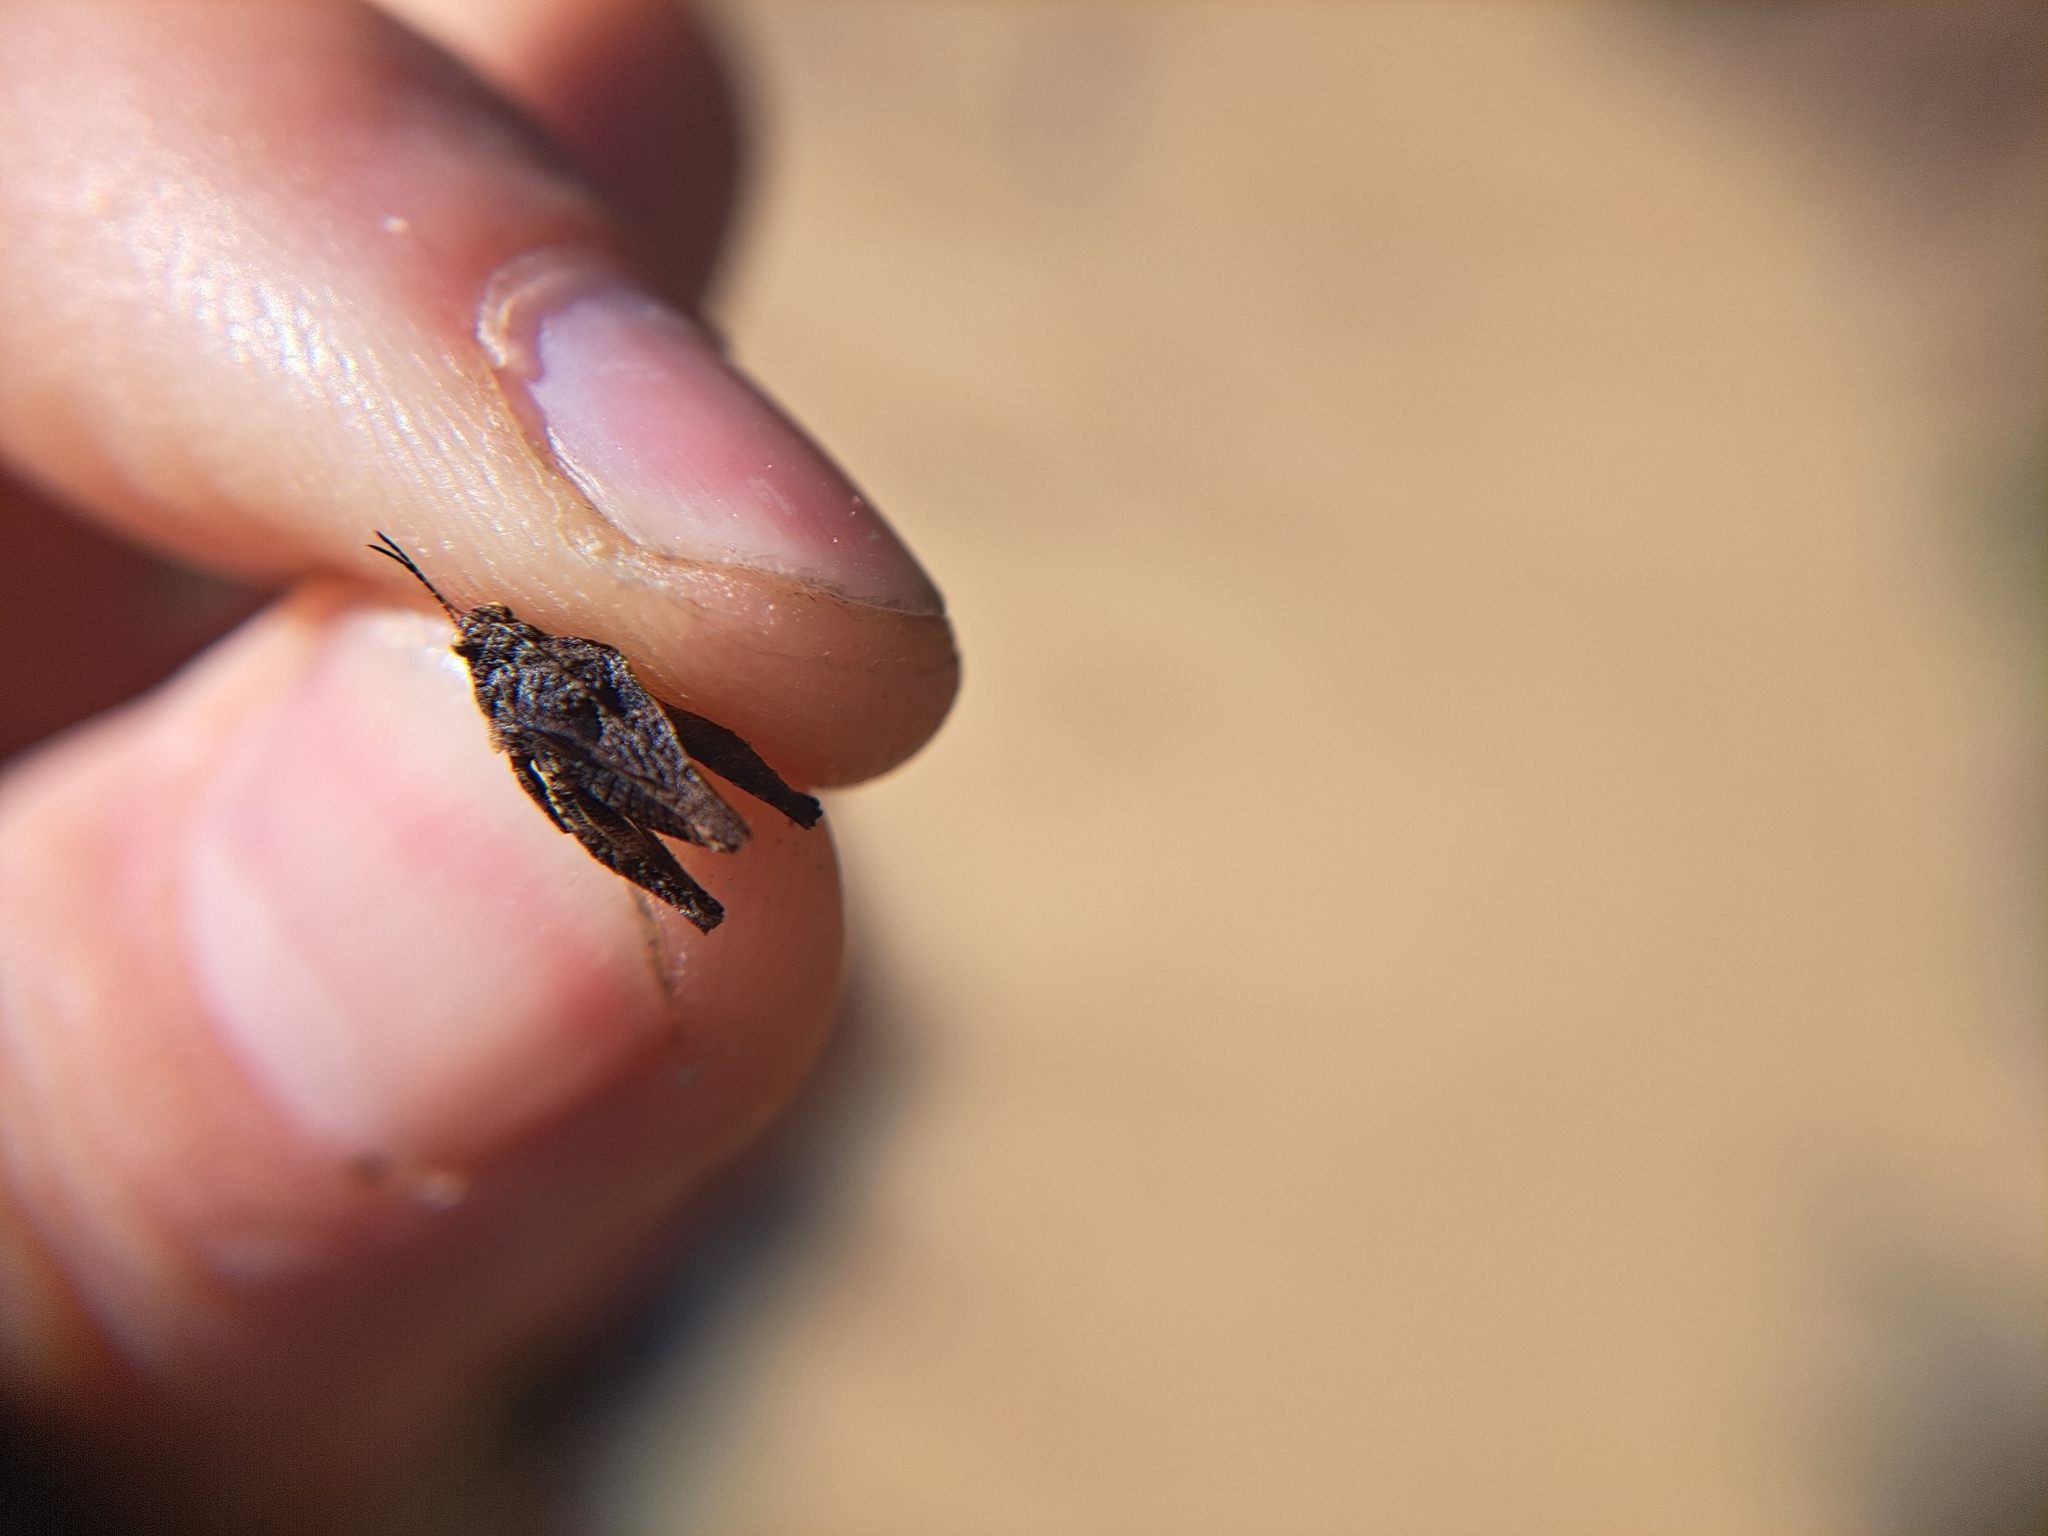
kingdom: Animalia
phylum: Arthropoda
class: Insecta
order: Orthoptera
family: Tetrigidae
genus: Tetrix
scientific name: Tetrix depressa
